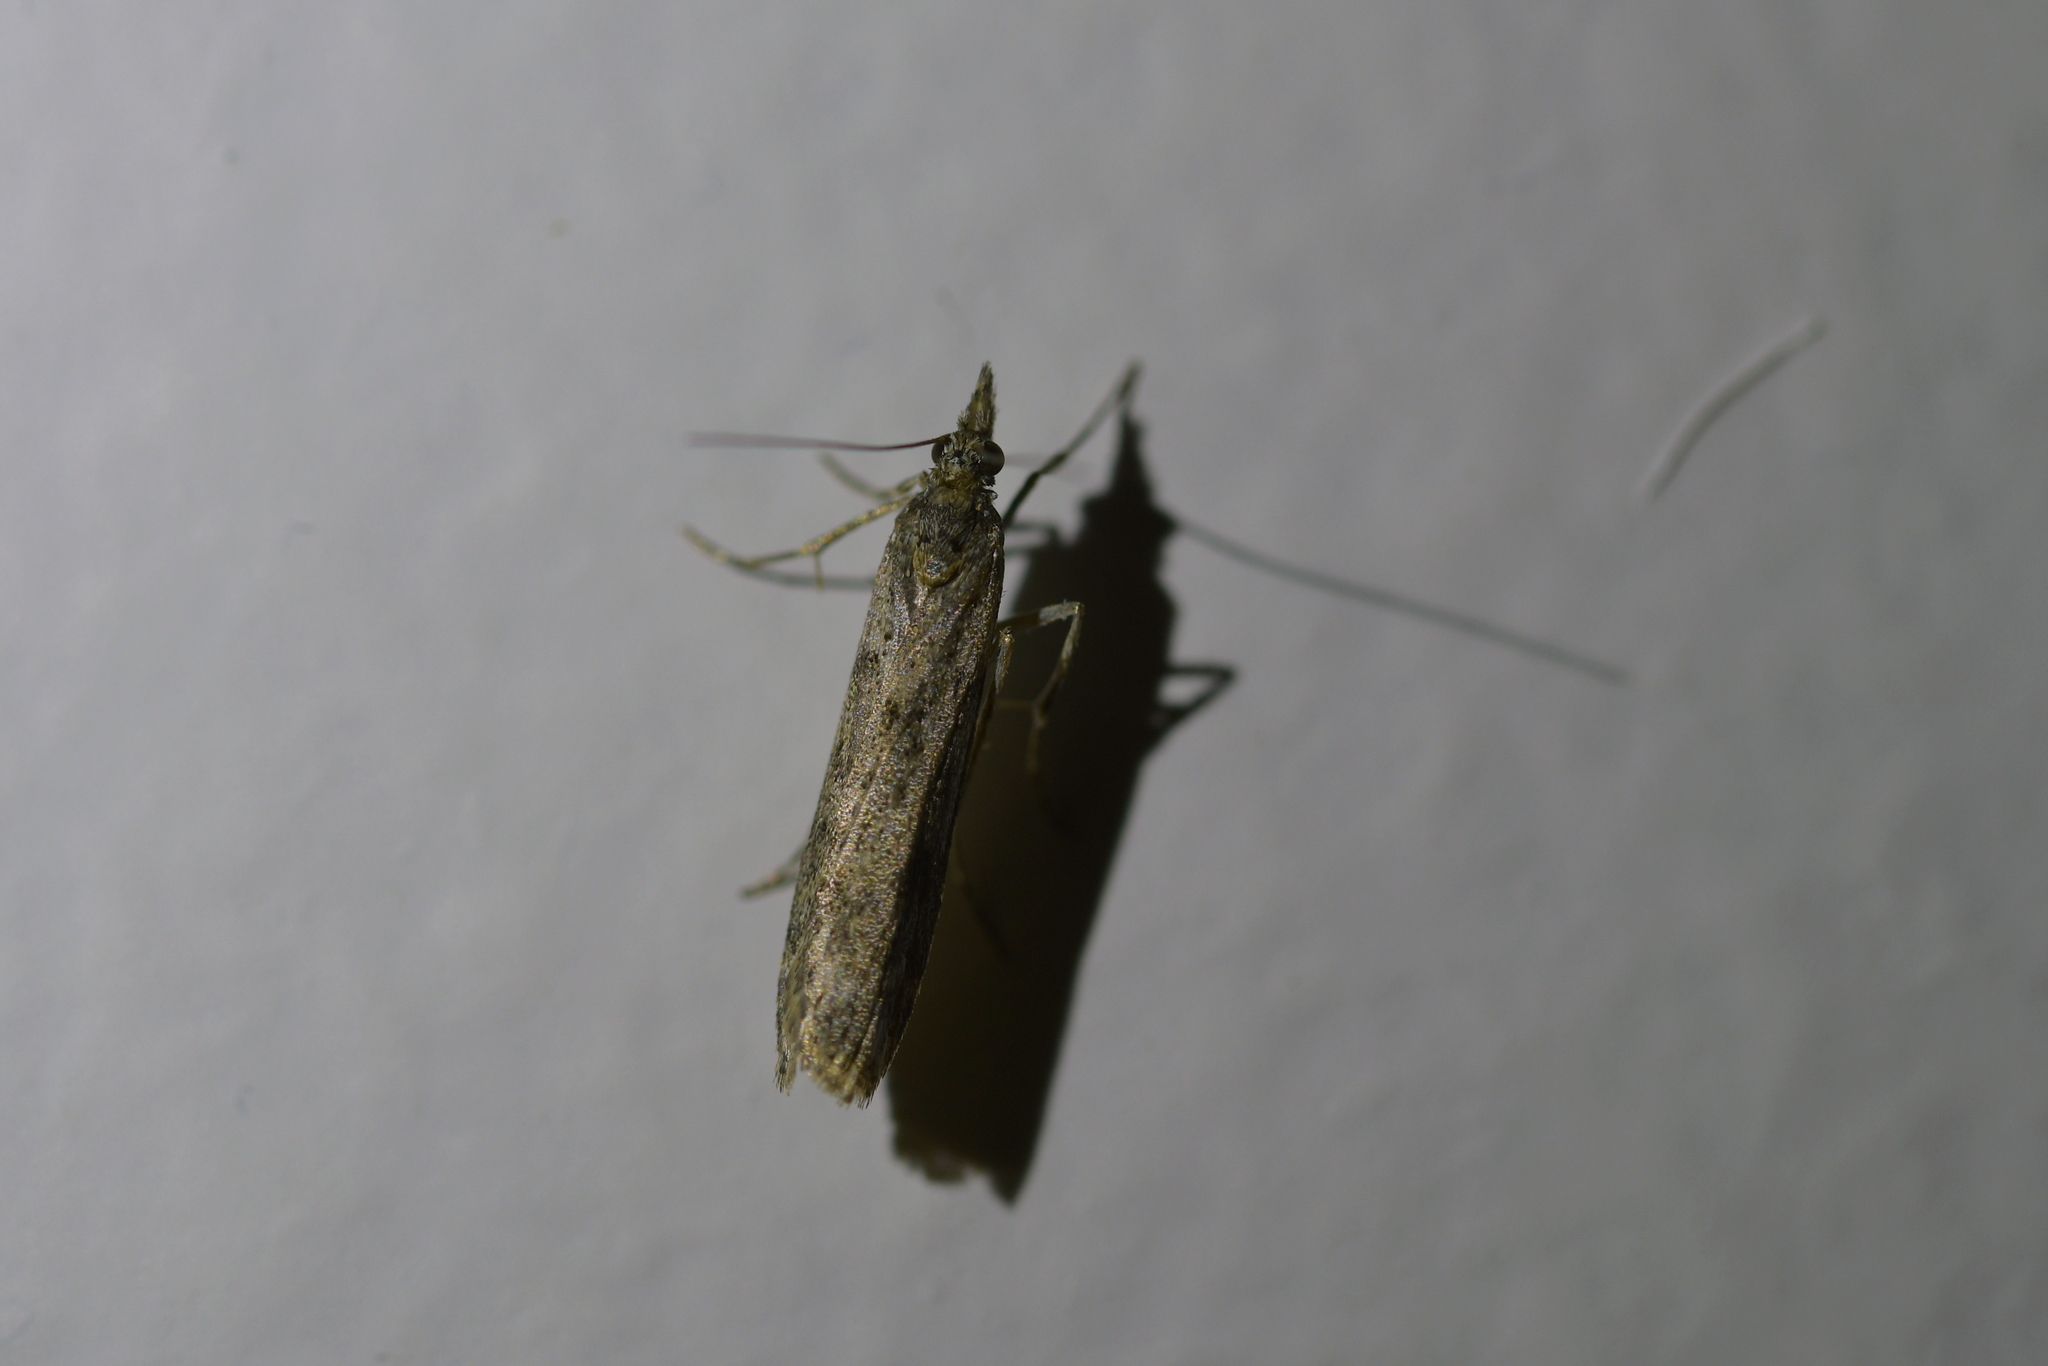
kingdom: Animalia
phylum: Arthropoda
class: Insecta
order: Lepidoptera
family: Crambidae
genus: Eudonia
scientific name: Eudonia leptalea
